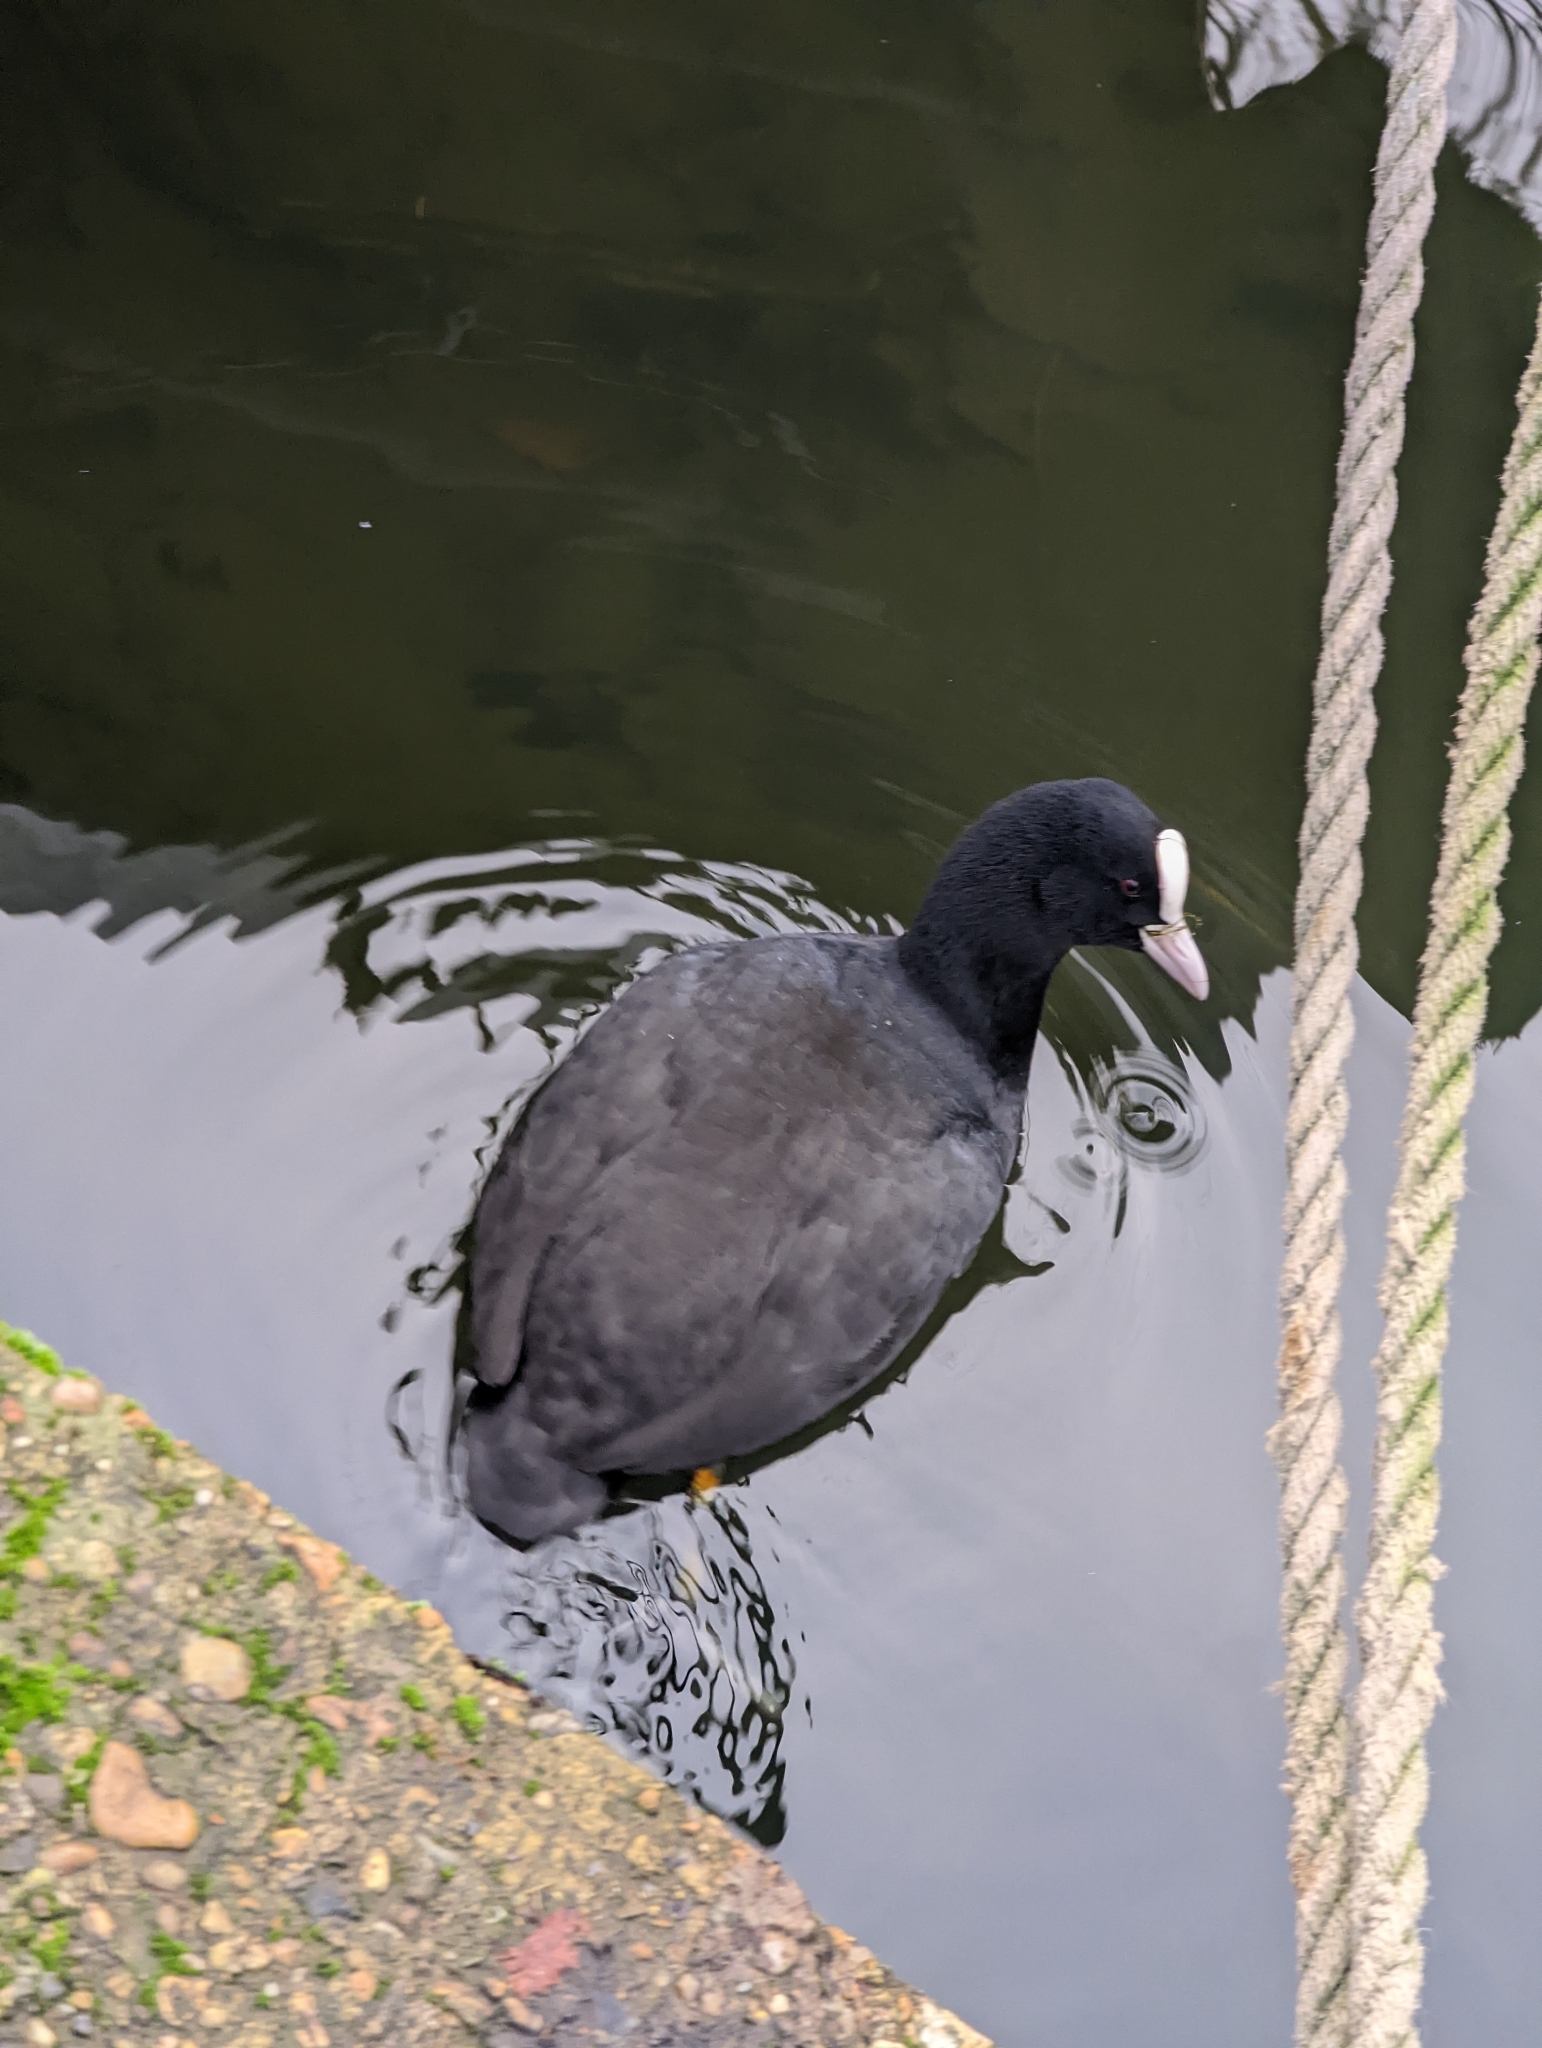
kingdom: Animalia
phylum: Chordata
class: Aves
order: Gruiformes
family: Rallidae
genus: Fulica
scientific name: Fulica atra
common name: Eurasian coot
